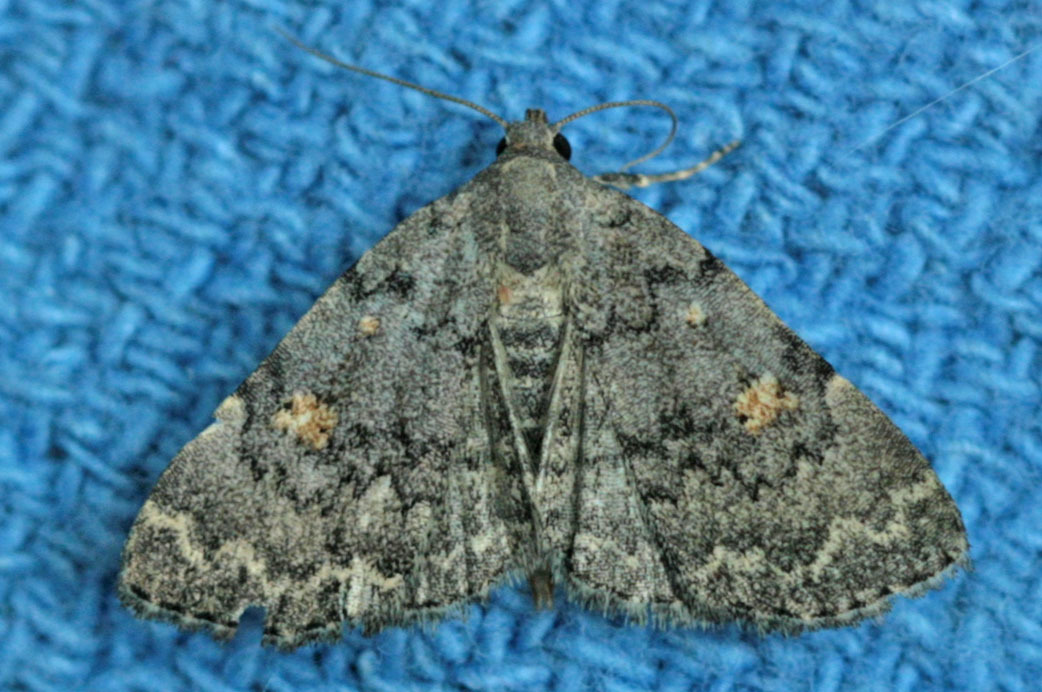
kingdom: Animalia
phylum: Arthropoda
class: Insecta
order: Lepidoptera
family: Erebidae
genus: Idia
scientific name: Idia aemula
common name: Common idia moth
